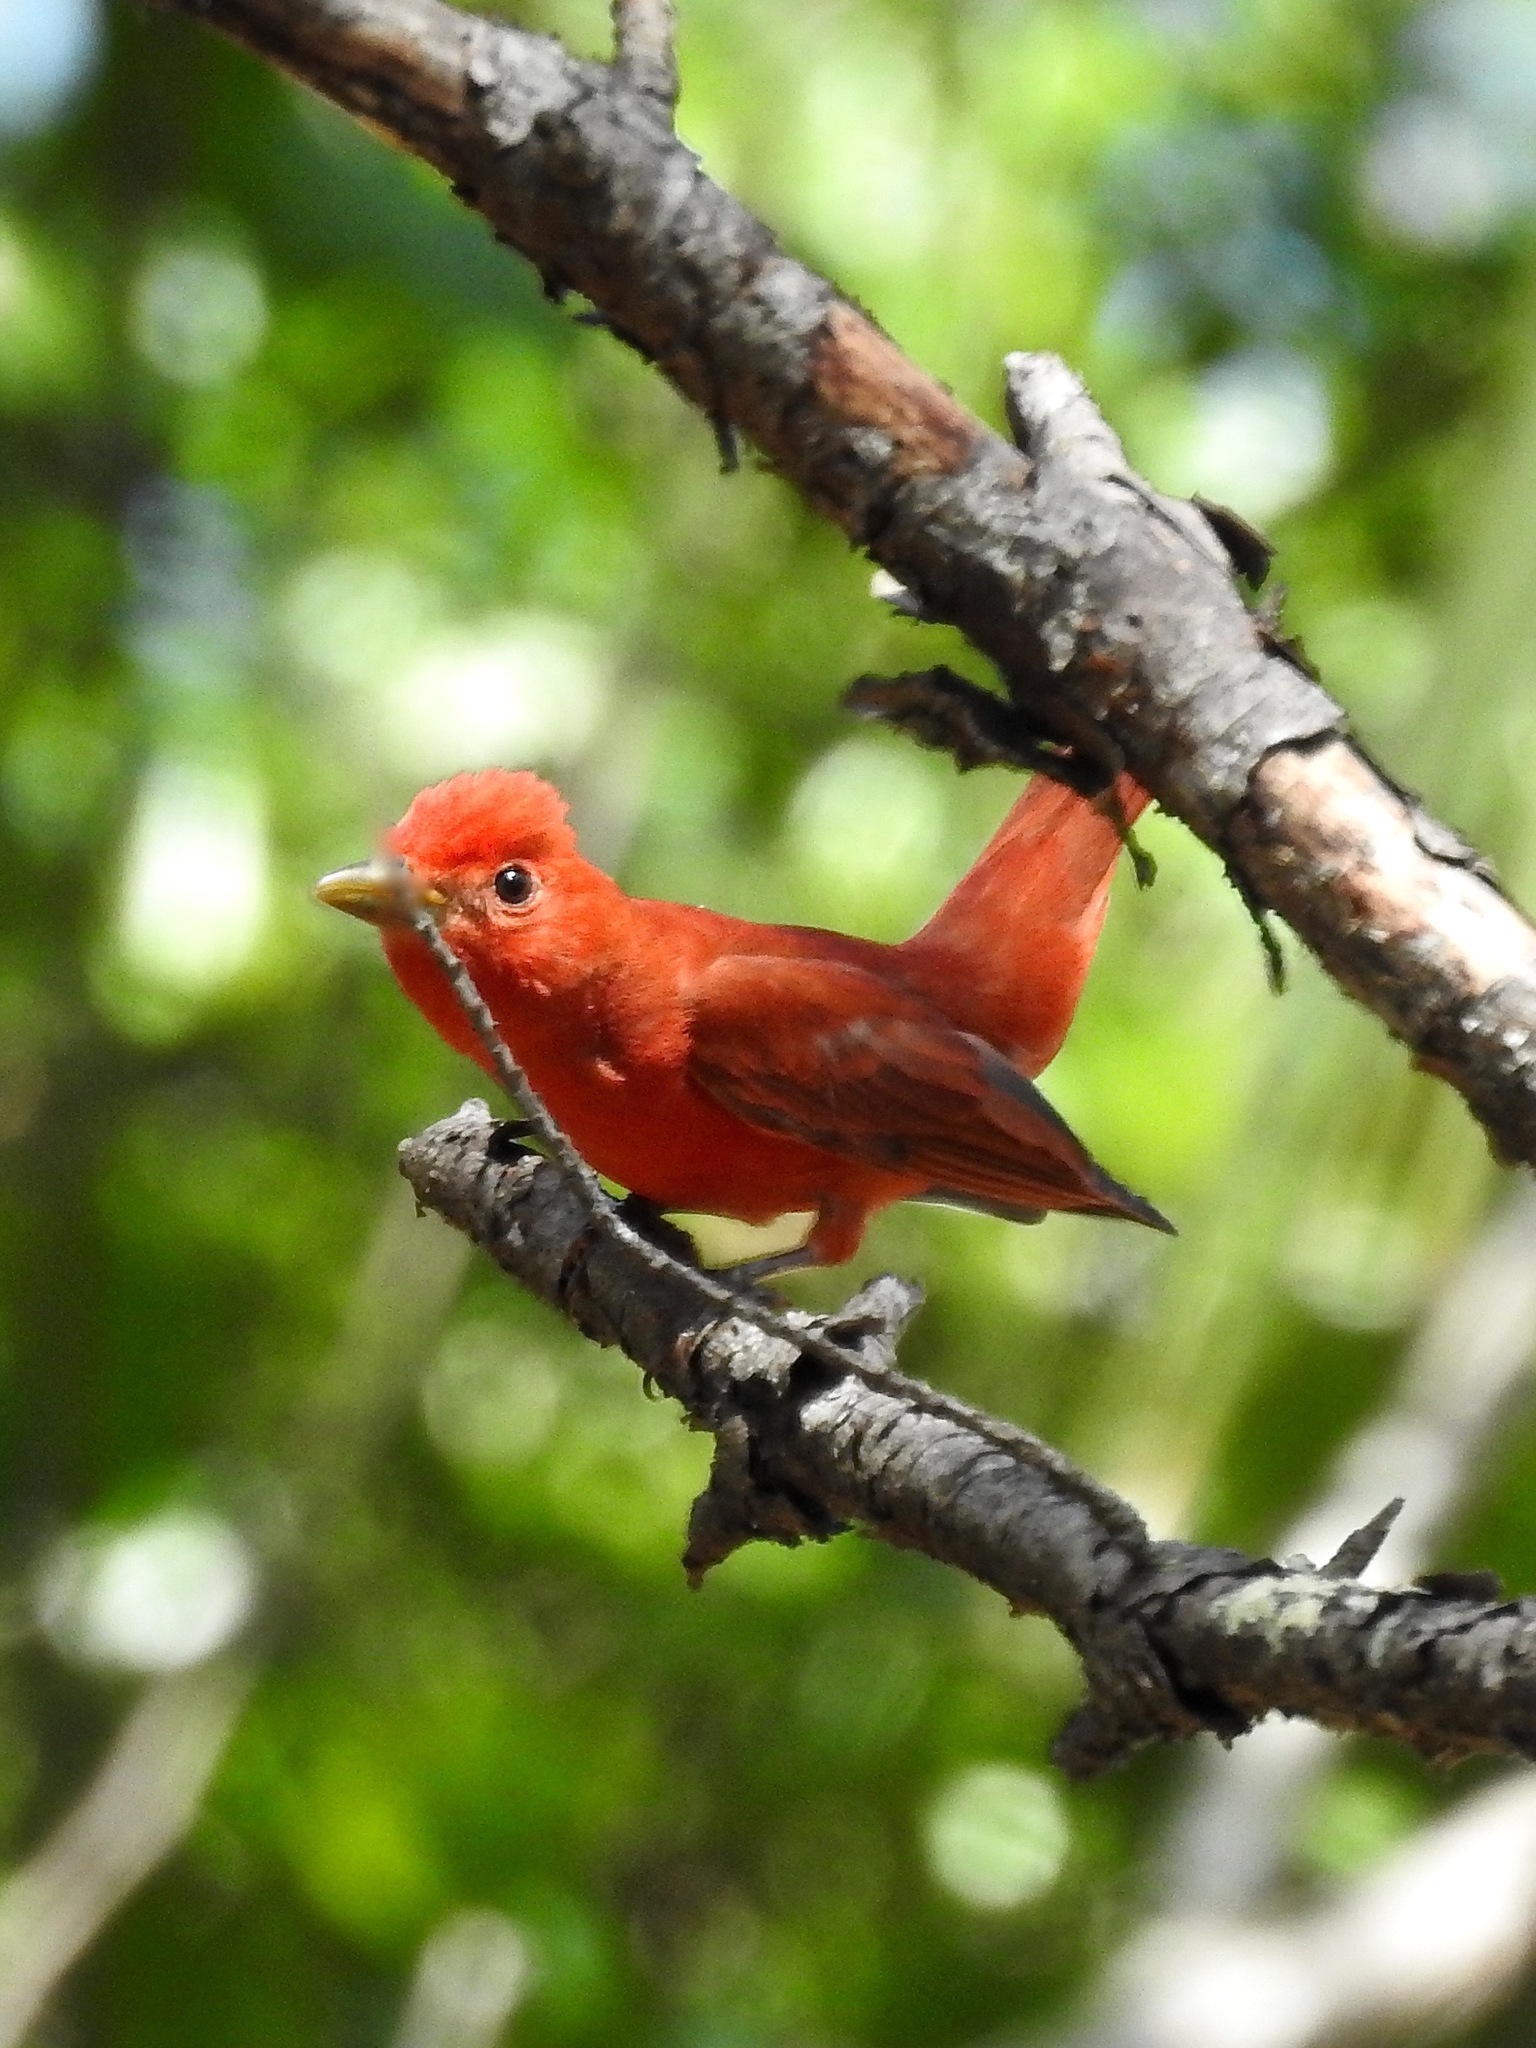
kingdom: Animalia
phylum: Chordata
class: Aves
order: Passeriformes
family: Cardinalidae
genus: Piranga
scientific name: Piranga rubra
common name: Summer tanager
